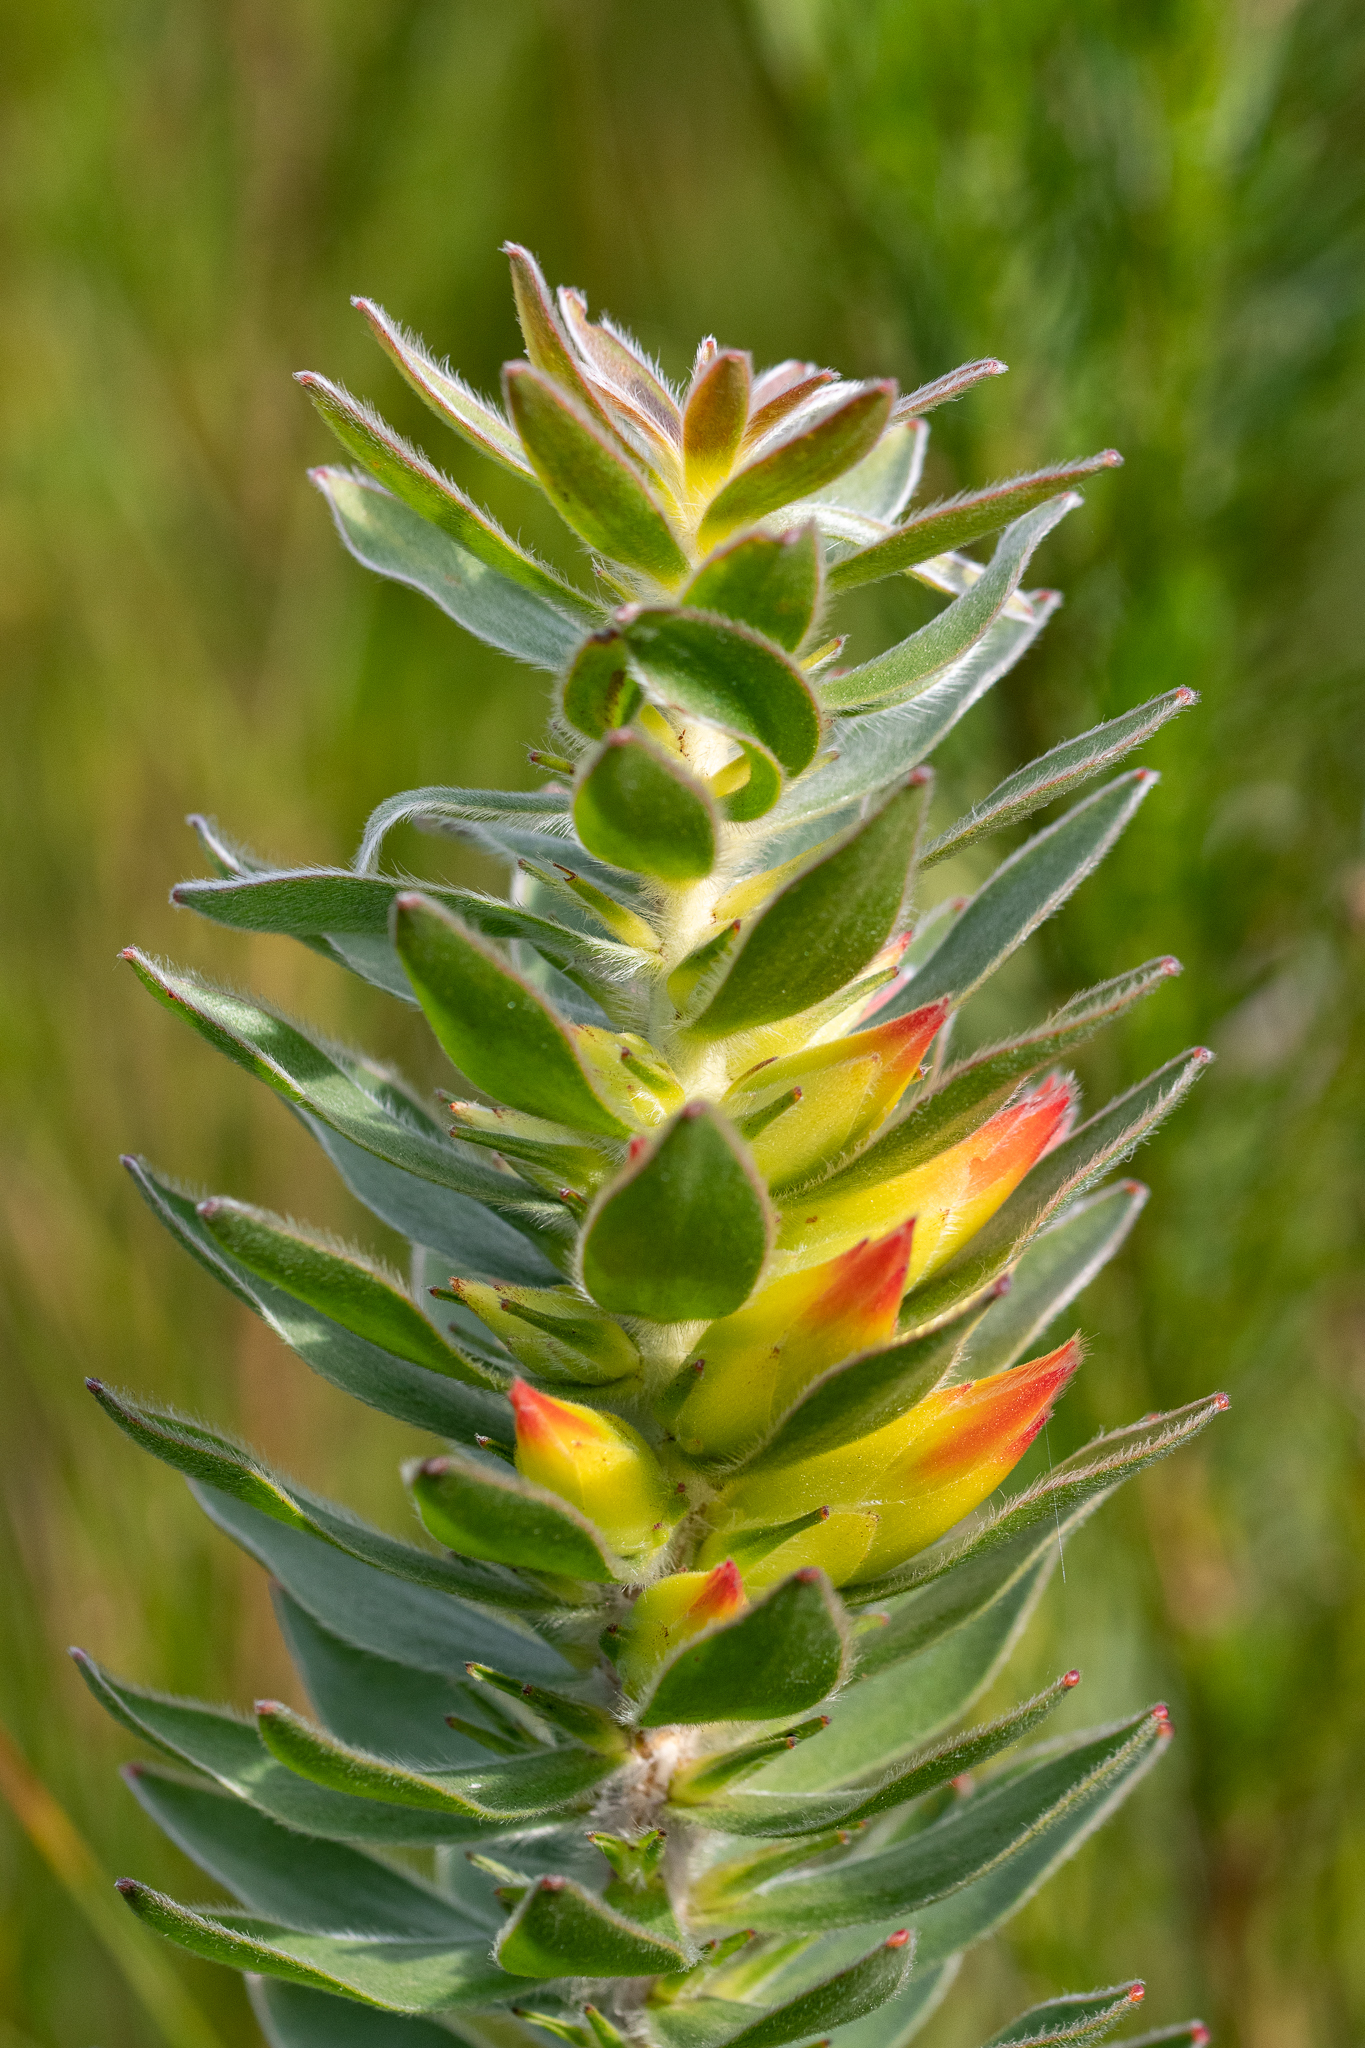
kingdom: Plantae
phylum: Tracheophyta
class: Magnoliopsida
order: Proteales
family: Proteaceae
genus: Mimetes
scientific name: Mimetes hirtus
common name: Marsh pagoda
